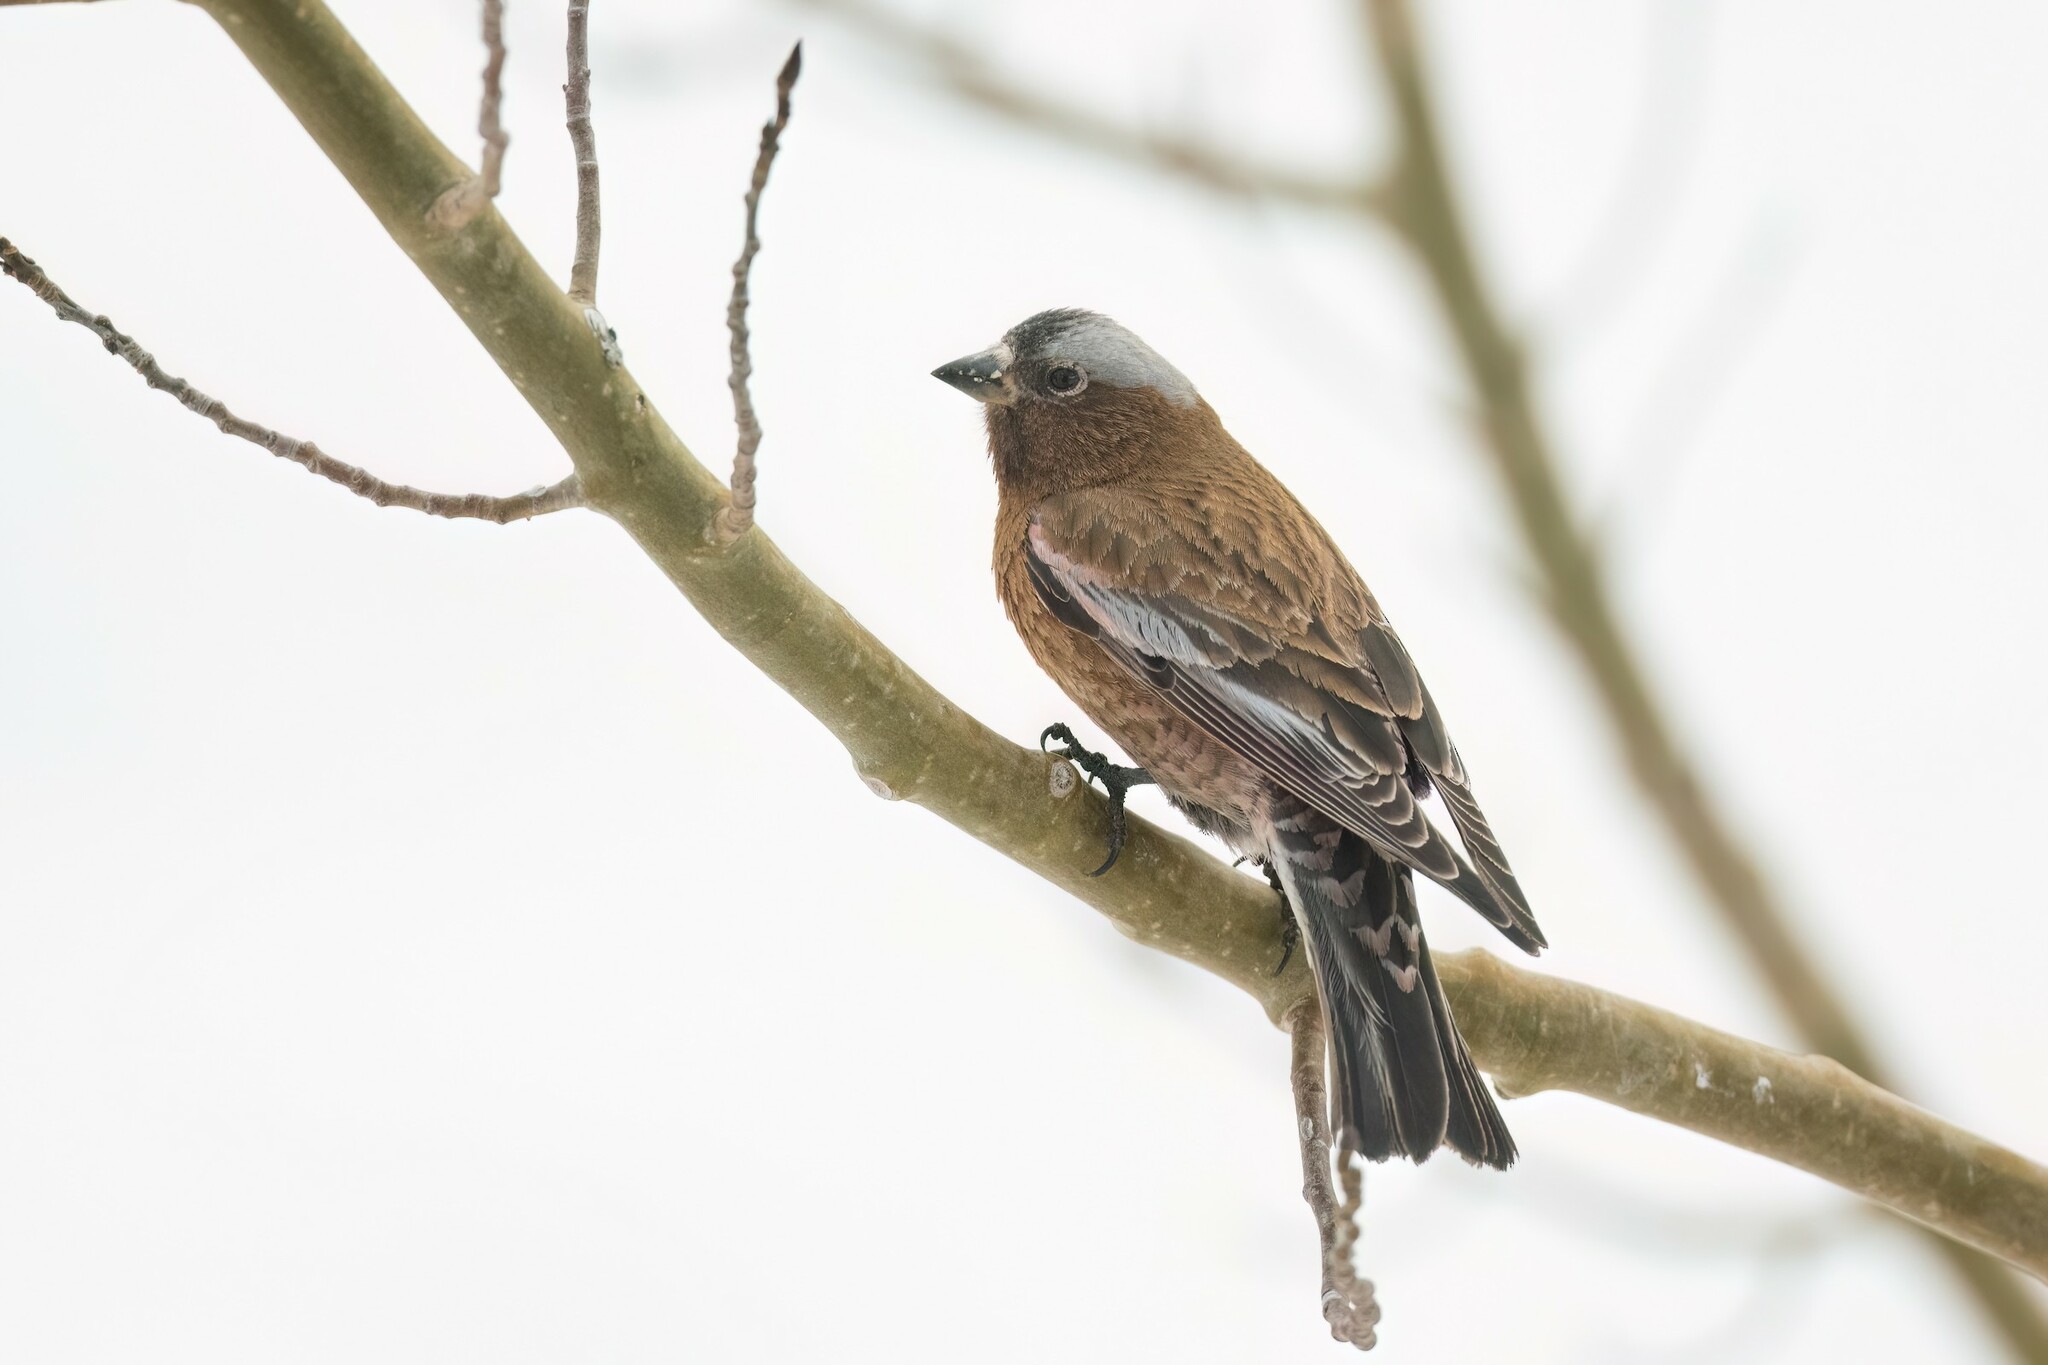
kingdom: Animalia
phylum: Chordata
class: Aves
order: Passeriformes
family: Fringillidae
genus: Leucosticte
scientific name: Leucosticte tephrocotis
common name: Gray-crowned rosy-finch
